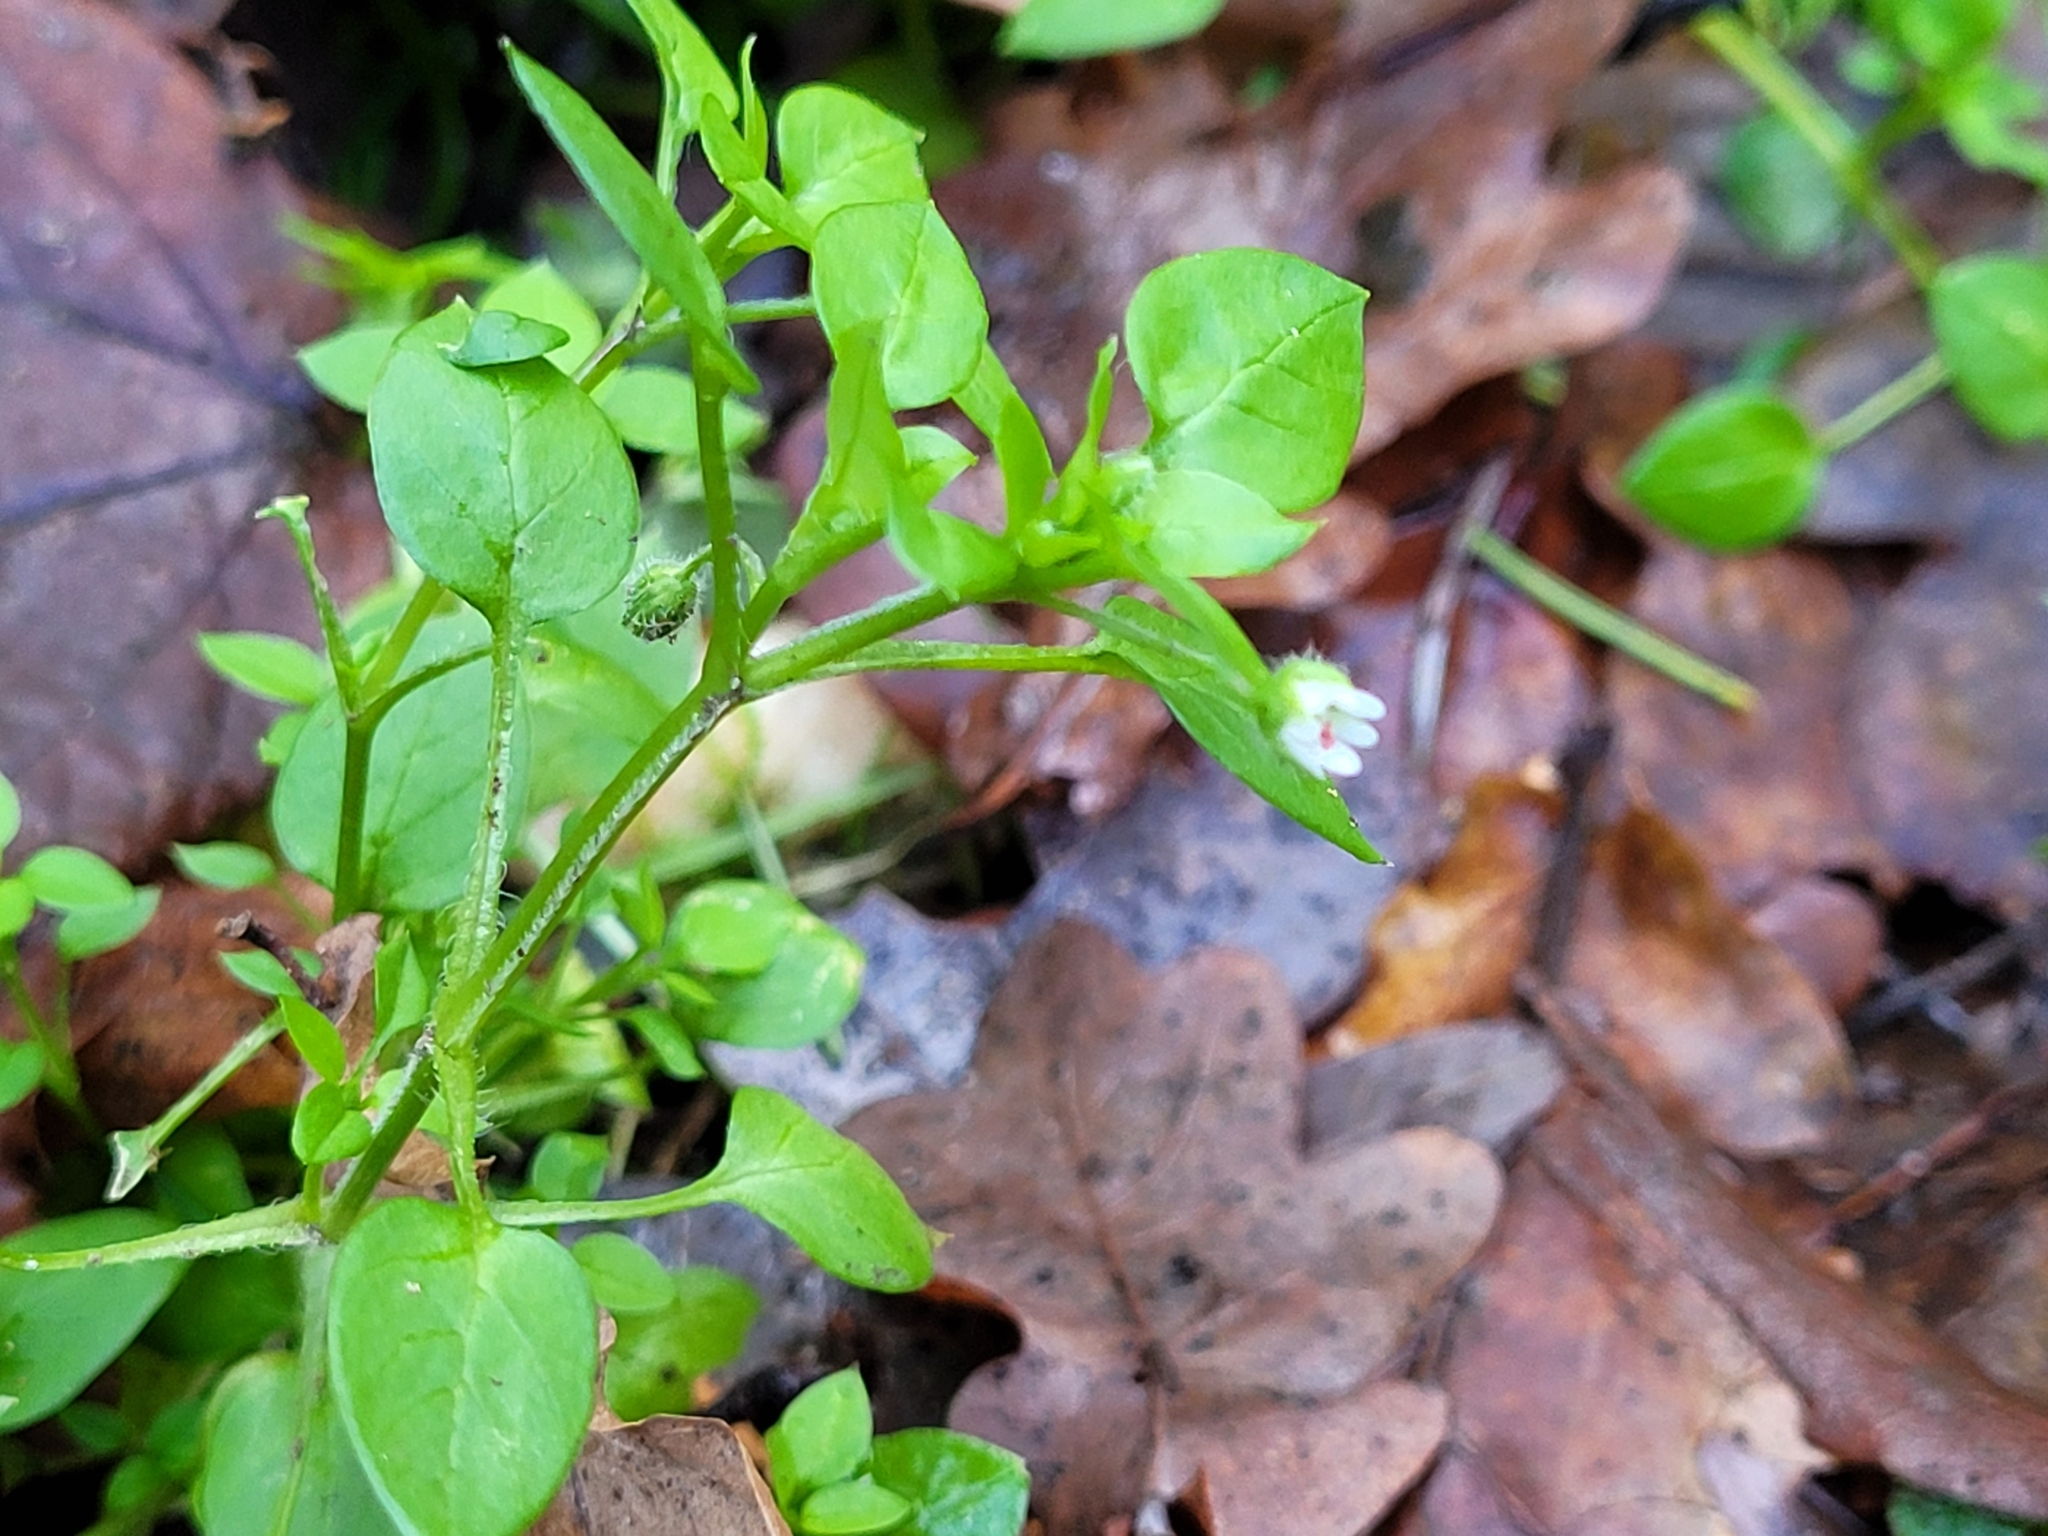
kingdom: Plantae
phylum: Tracheophyta
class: Magnoliopsida
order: Caryophyllales
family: Caryophyllaceae
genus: Stellaria
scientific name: Stellaria media
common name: Common chickweed
